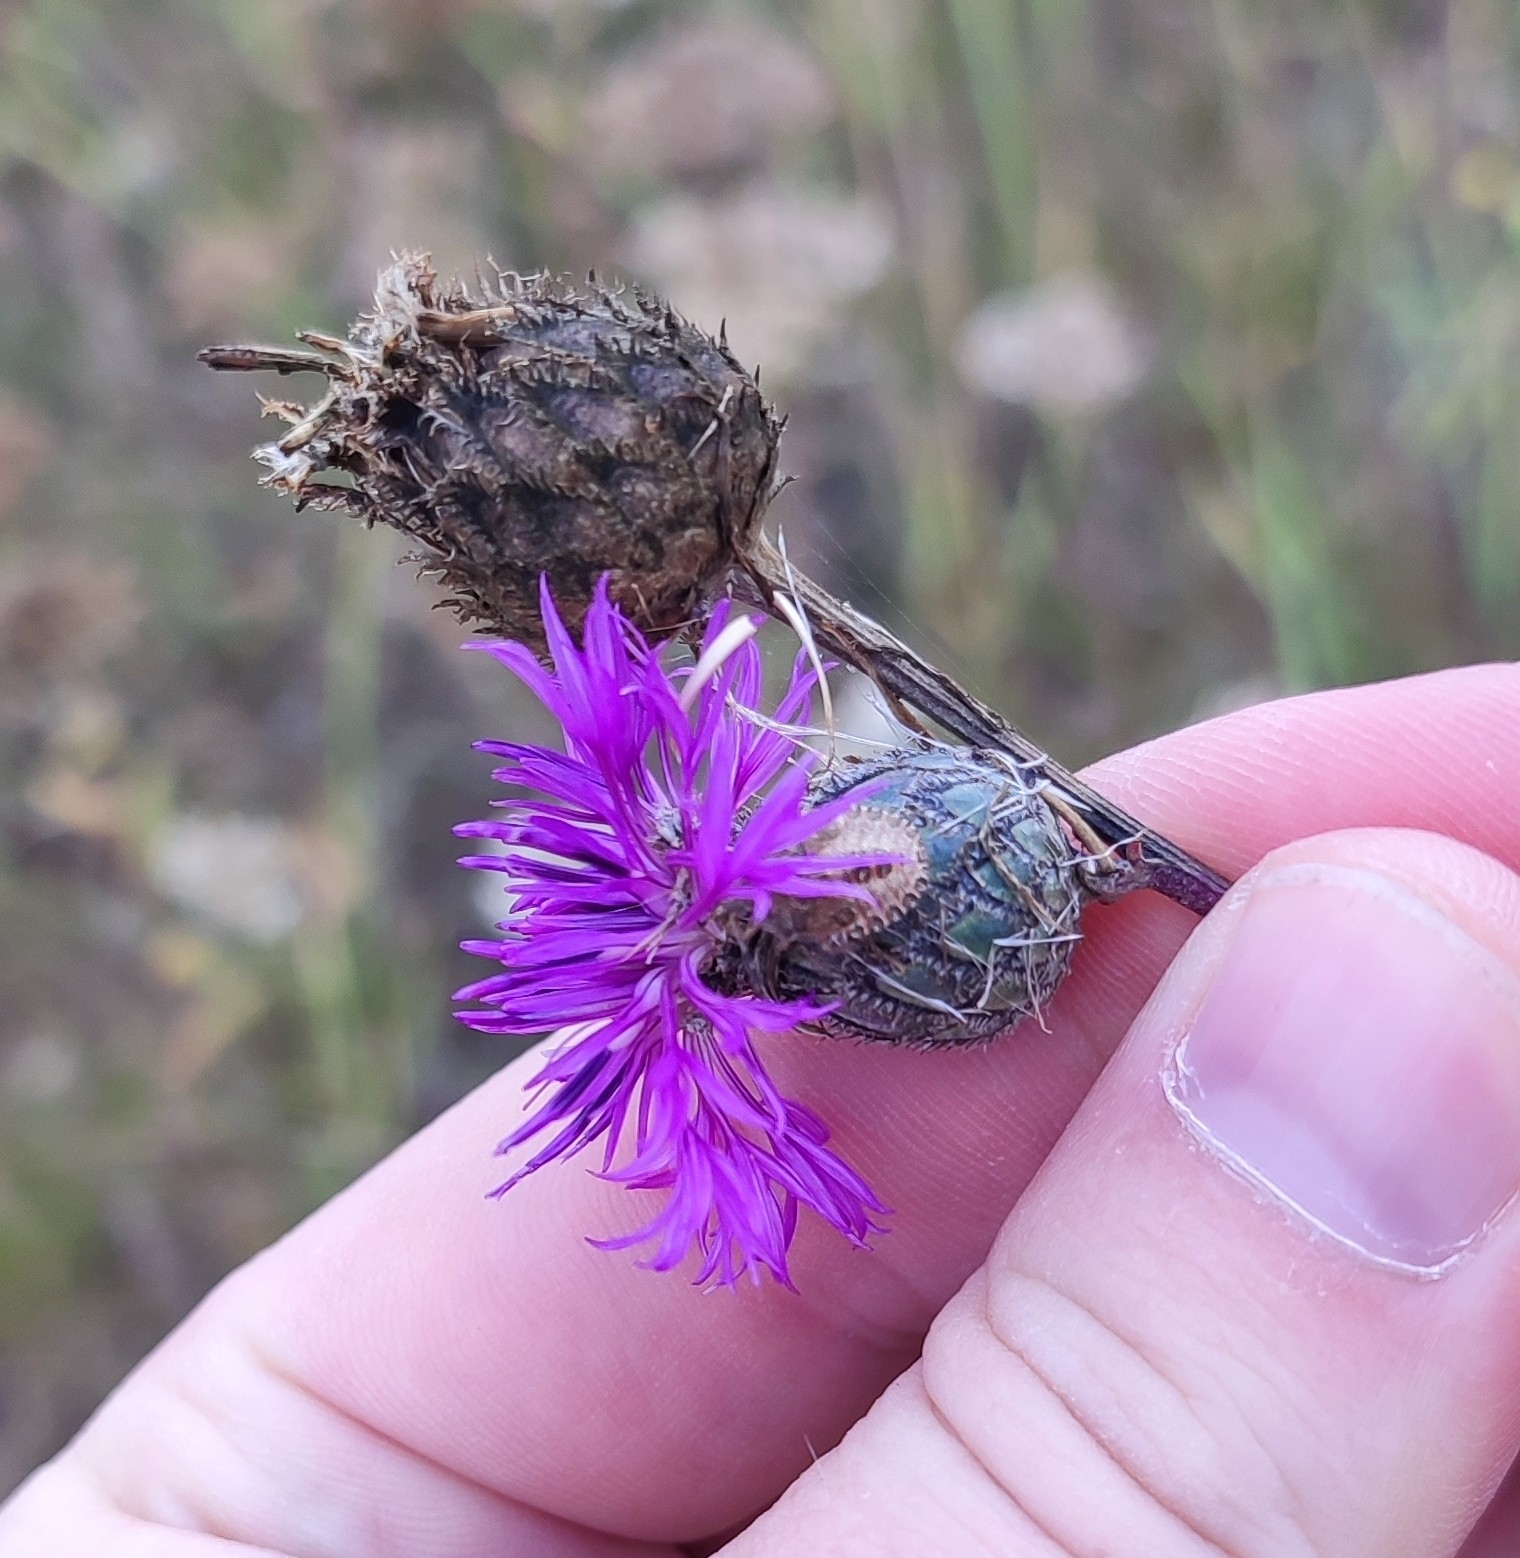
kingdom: Plantae
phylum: Tracheophyta
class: Magnoliopsida
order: Asterales
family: Asteraceae
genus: Centaurea
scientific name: Centaurea scabiosa
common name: Greater knapweed
